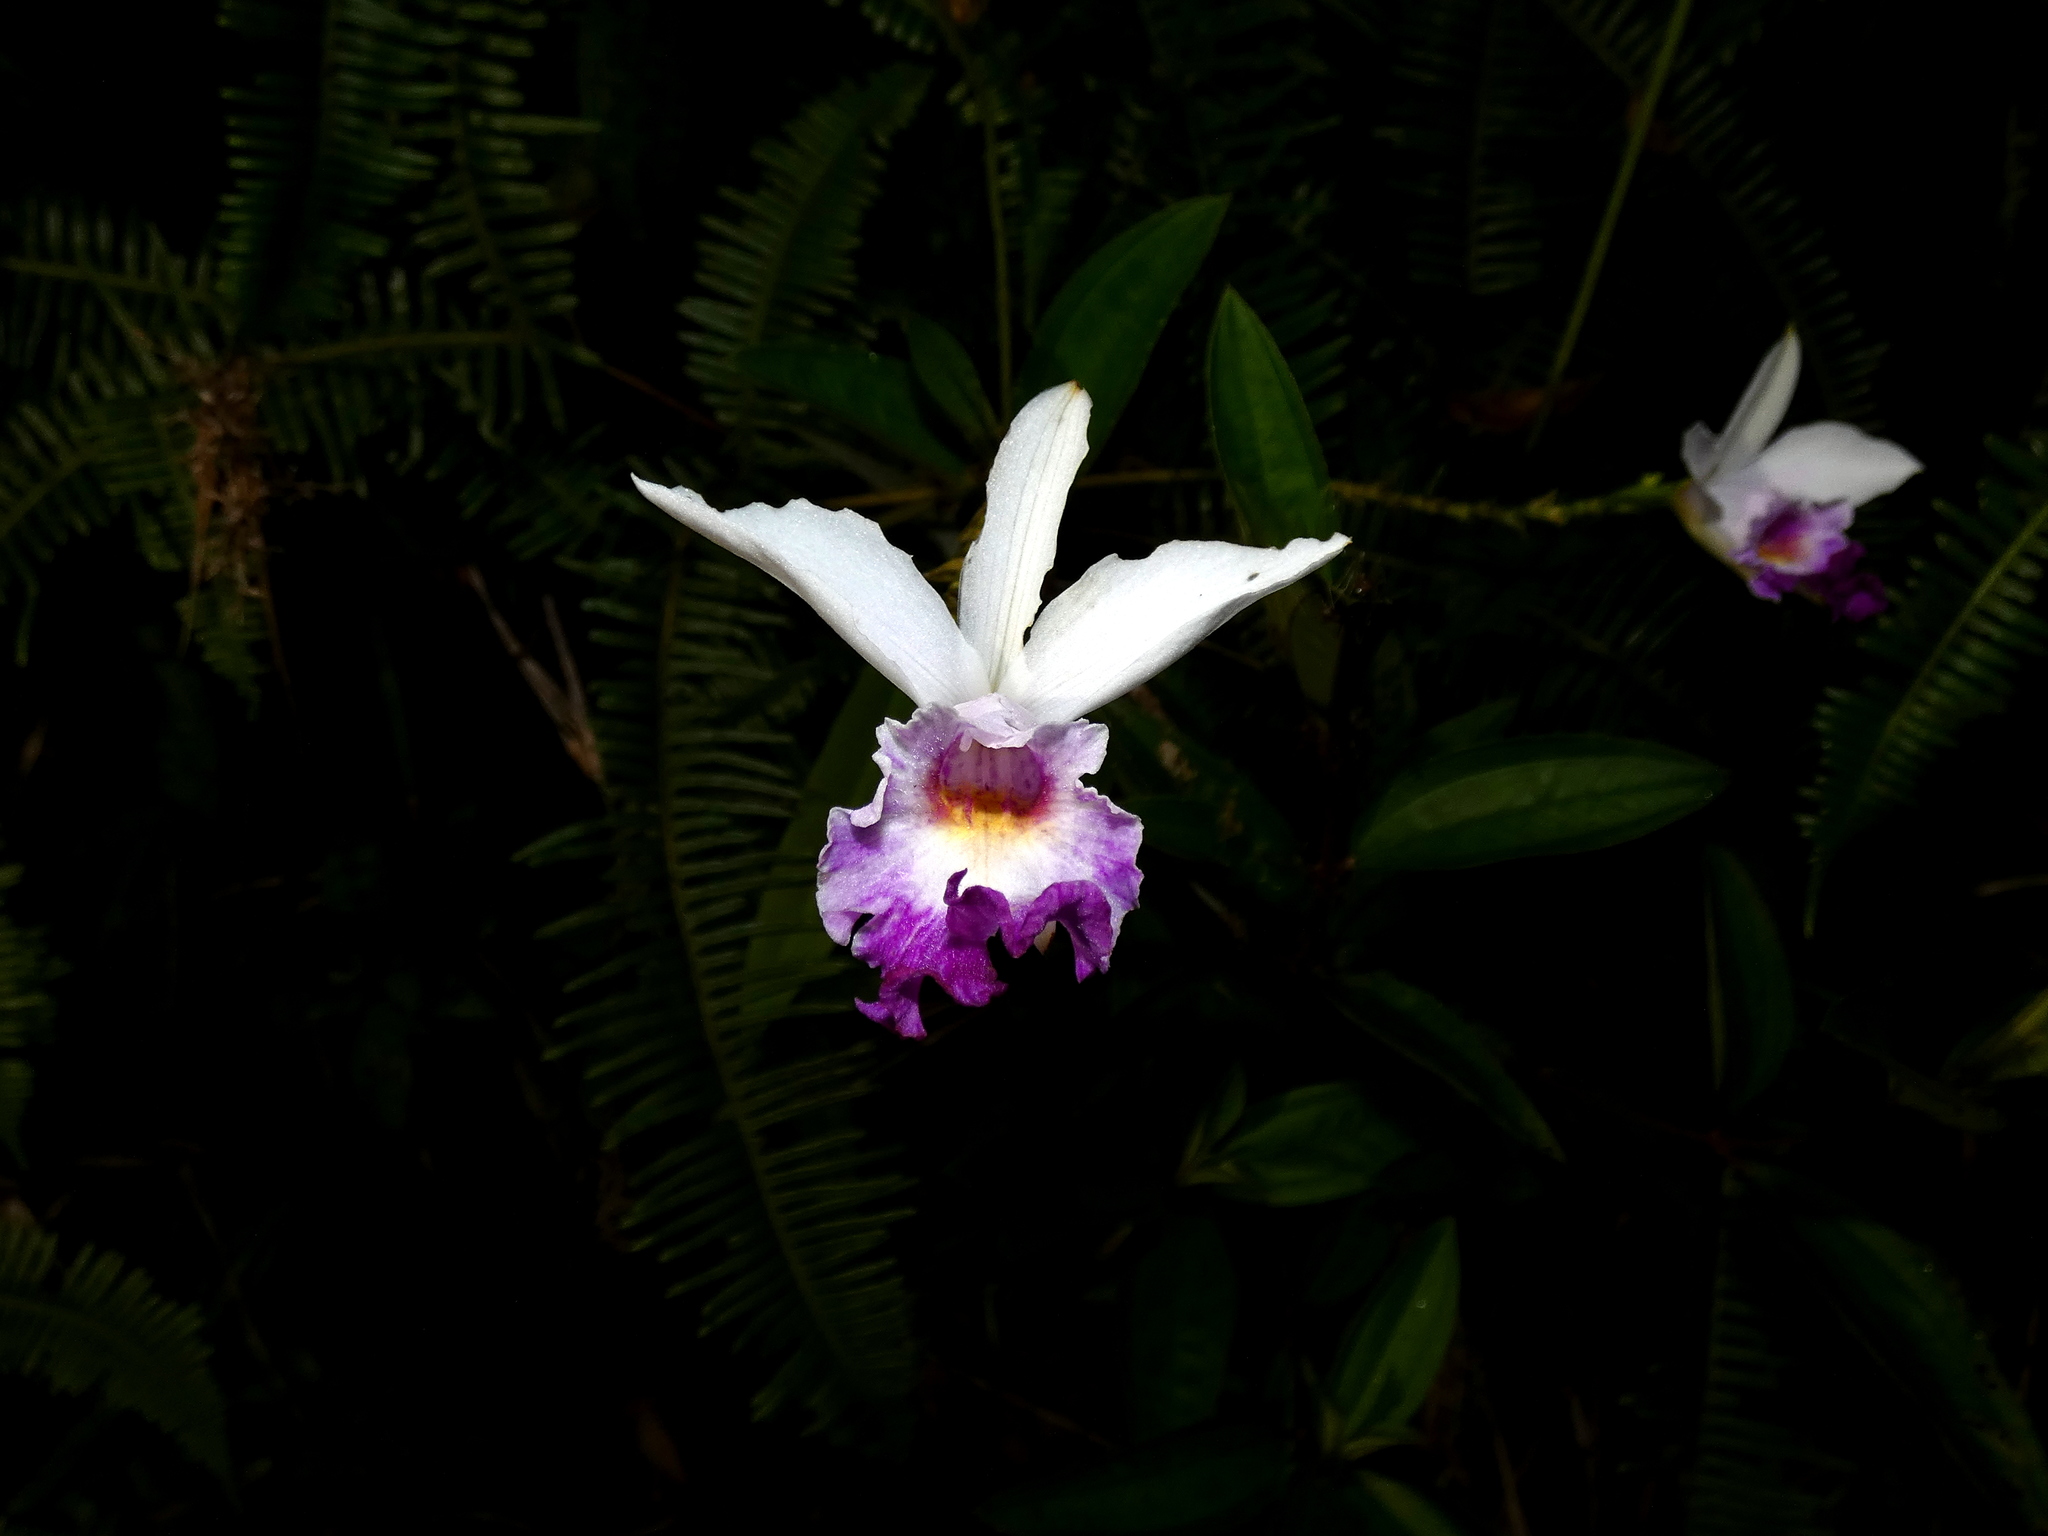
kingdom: Plantae
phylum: Tracheophyta
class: Liliopsida
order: Asparagales
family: Orchidaceae
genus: Arundina
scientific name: Arundina graminifolia
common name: Bamboo orchid
